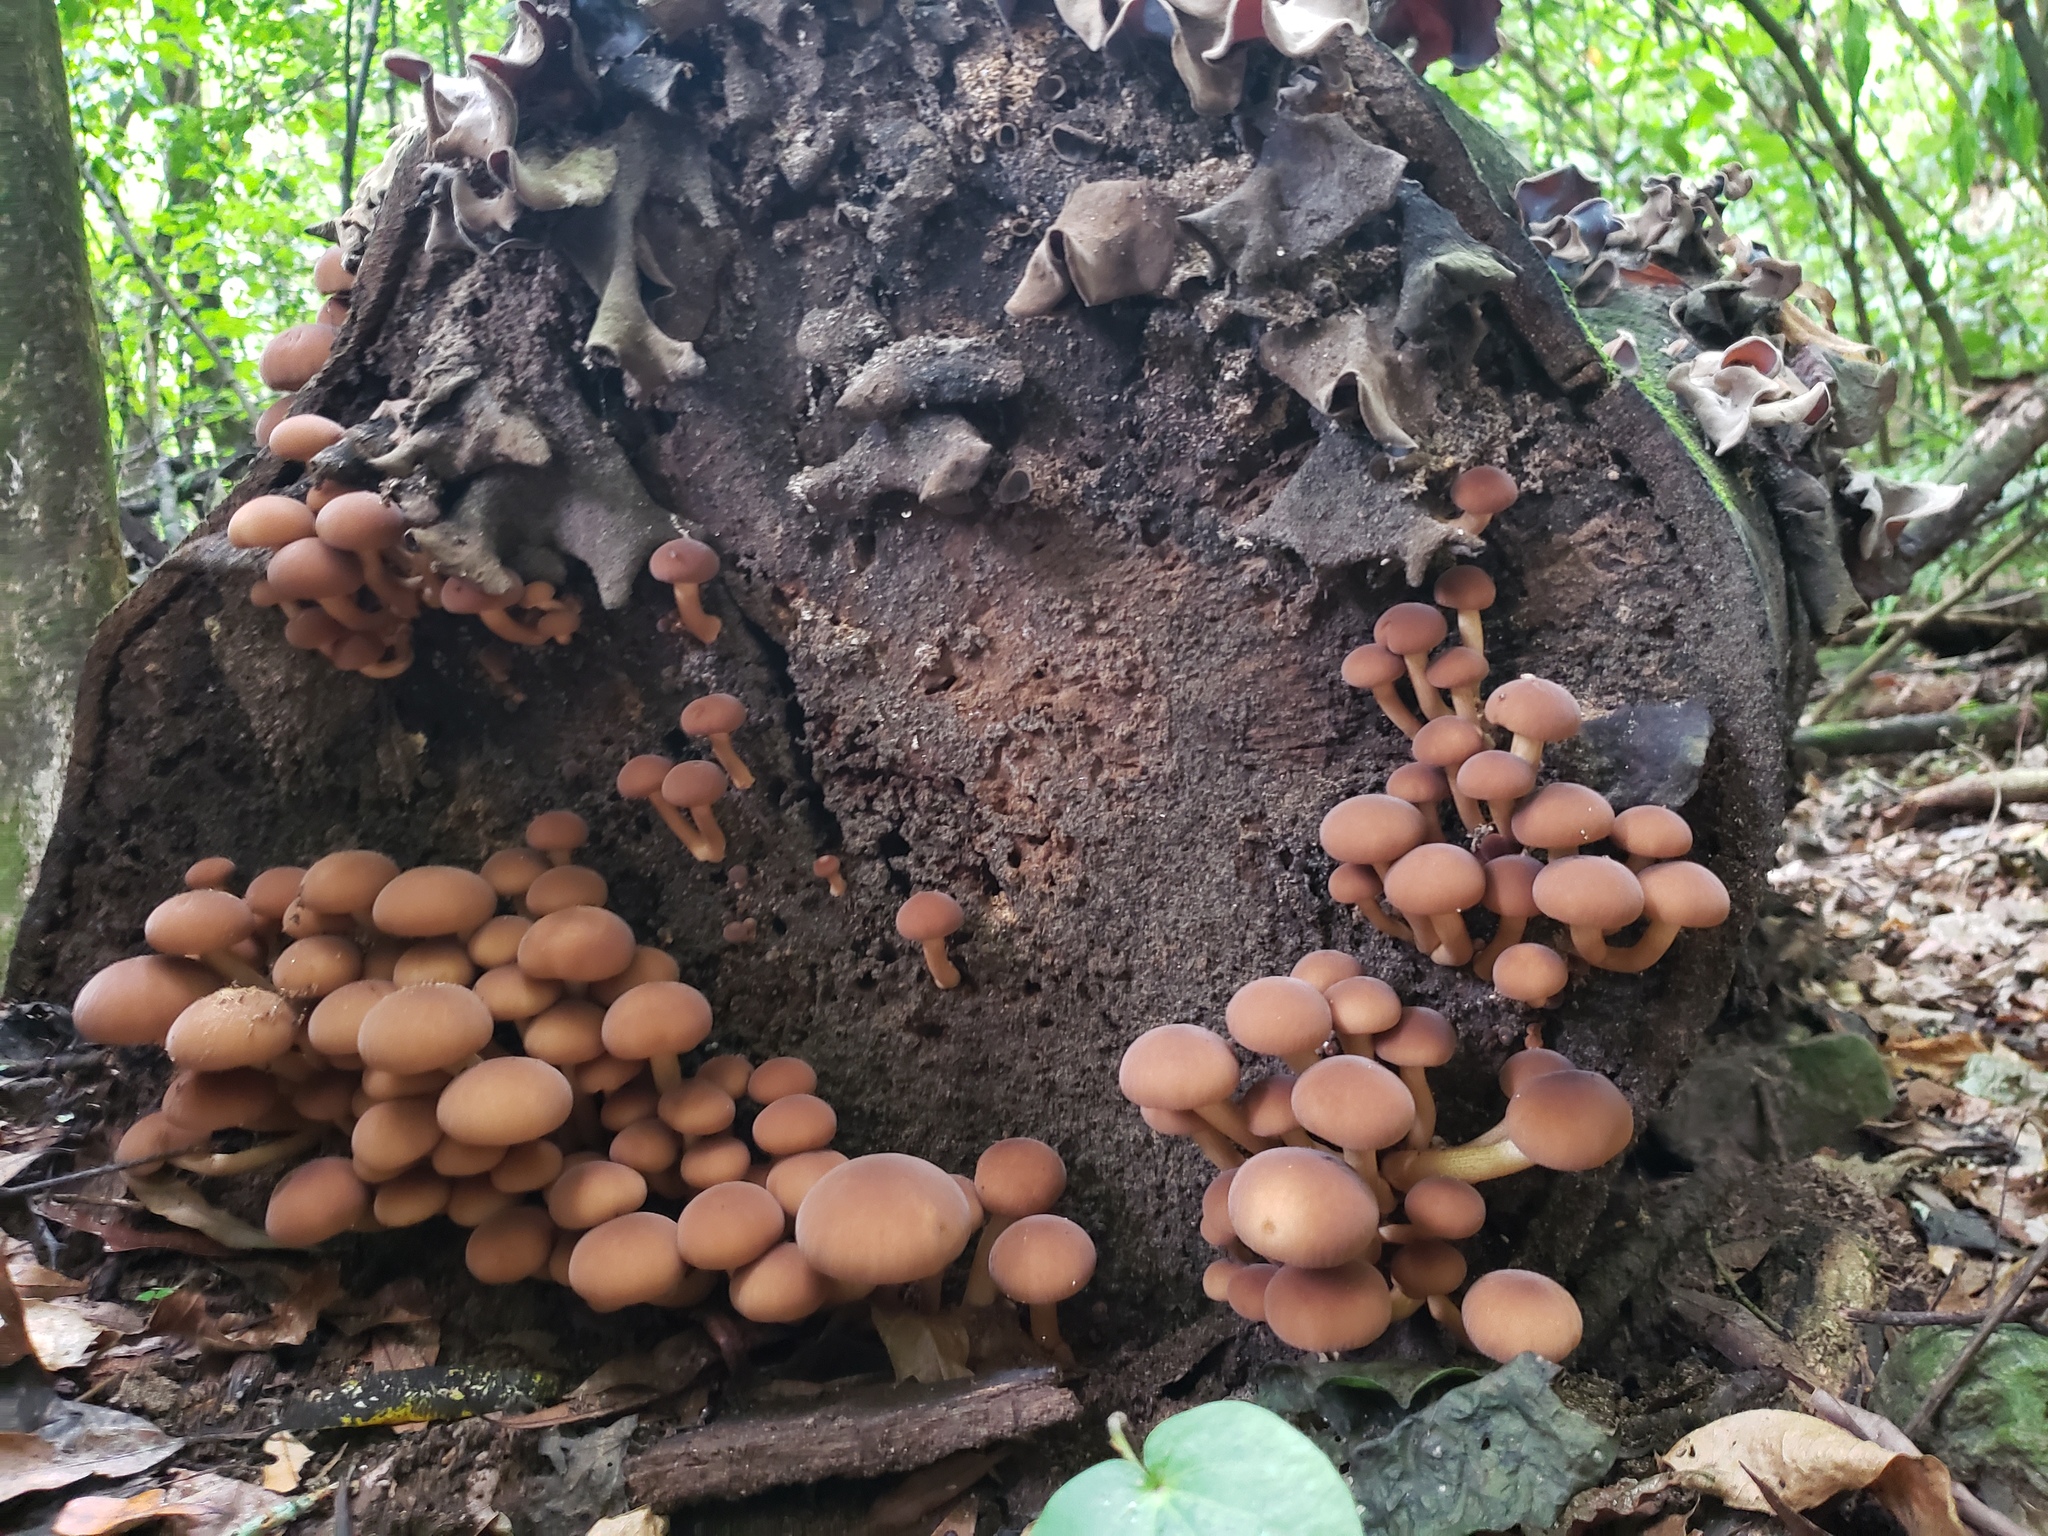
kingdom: Fungi
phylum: Basidiomycota
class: Agaricomycetes
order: Agaricales
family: Tubariaceae
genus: Cyclocybe
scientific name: Cyclocybe parasitica
